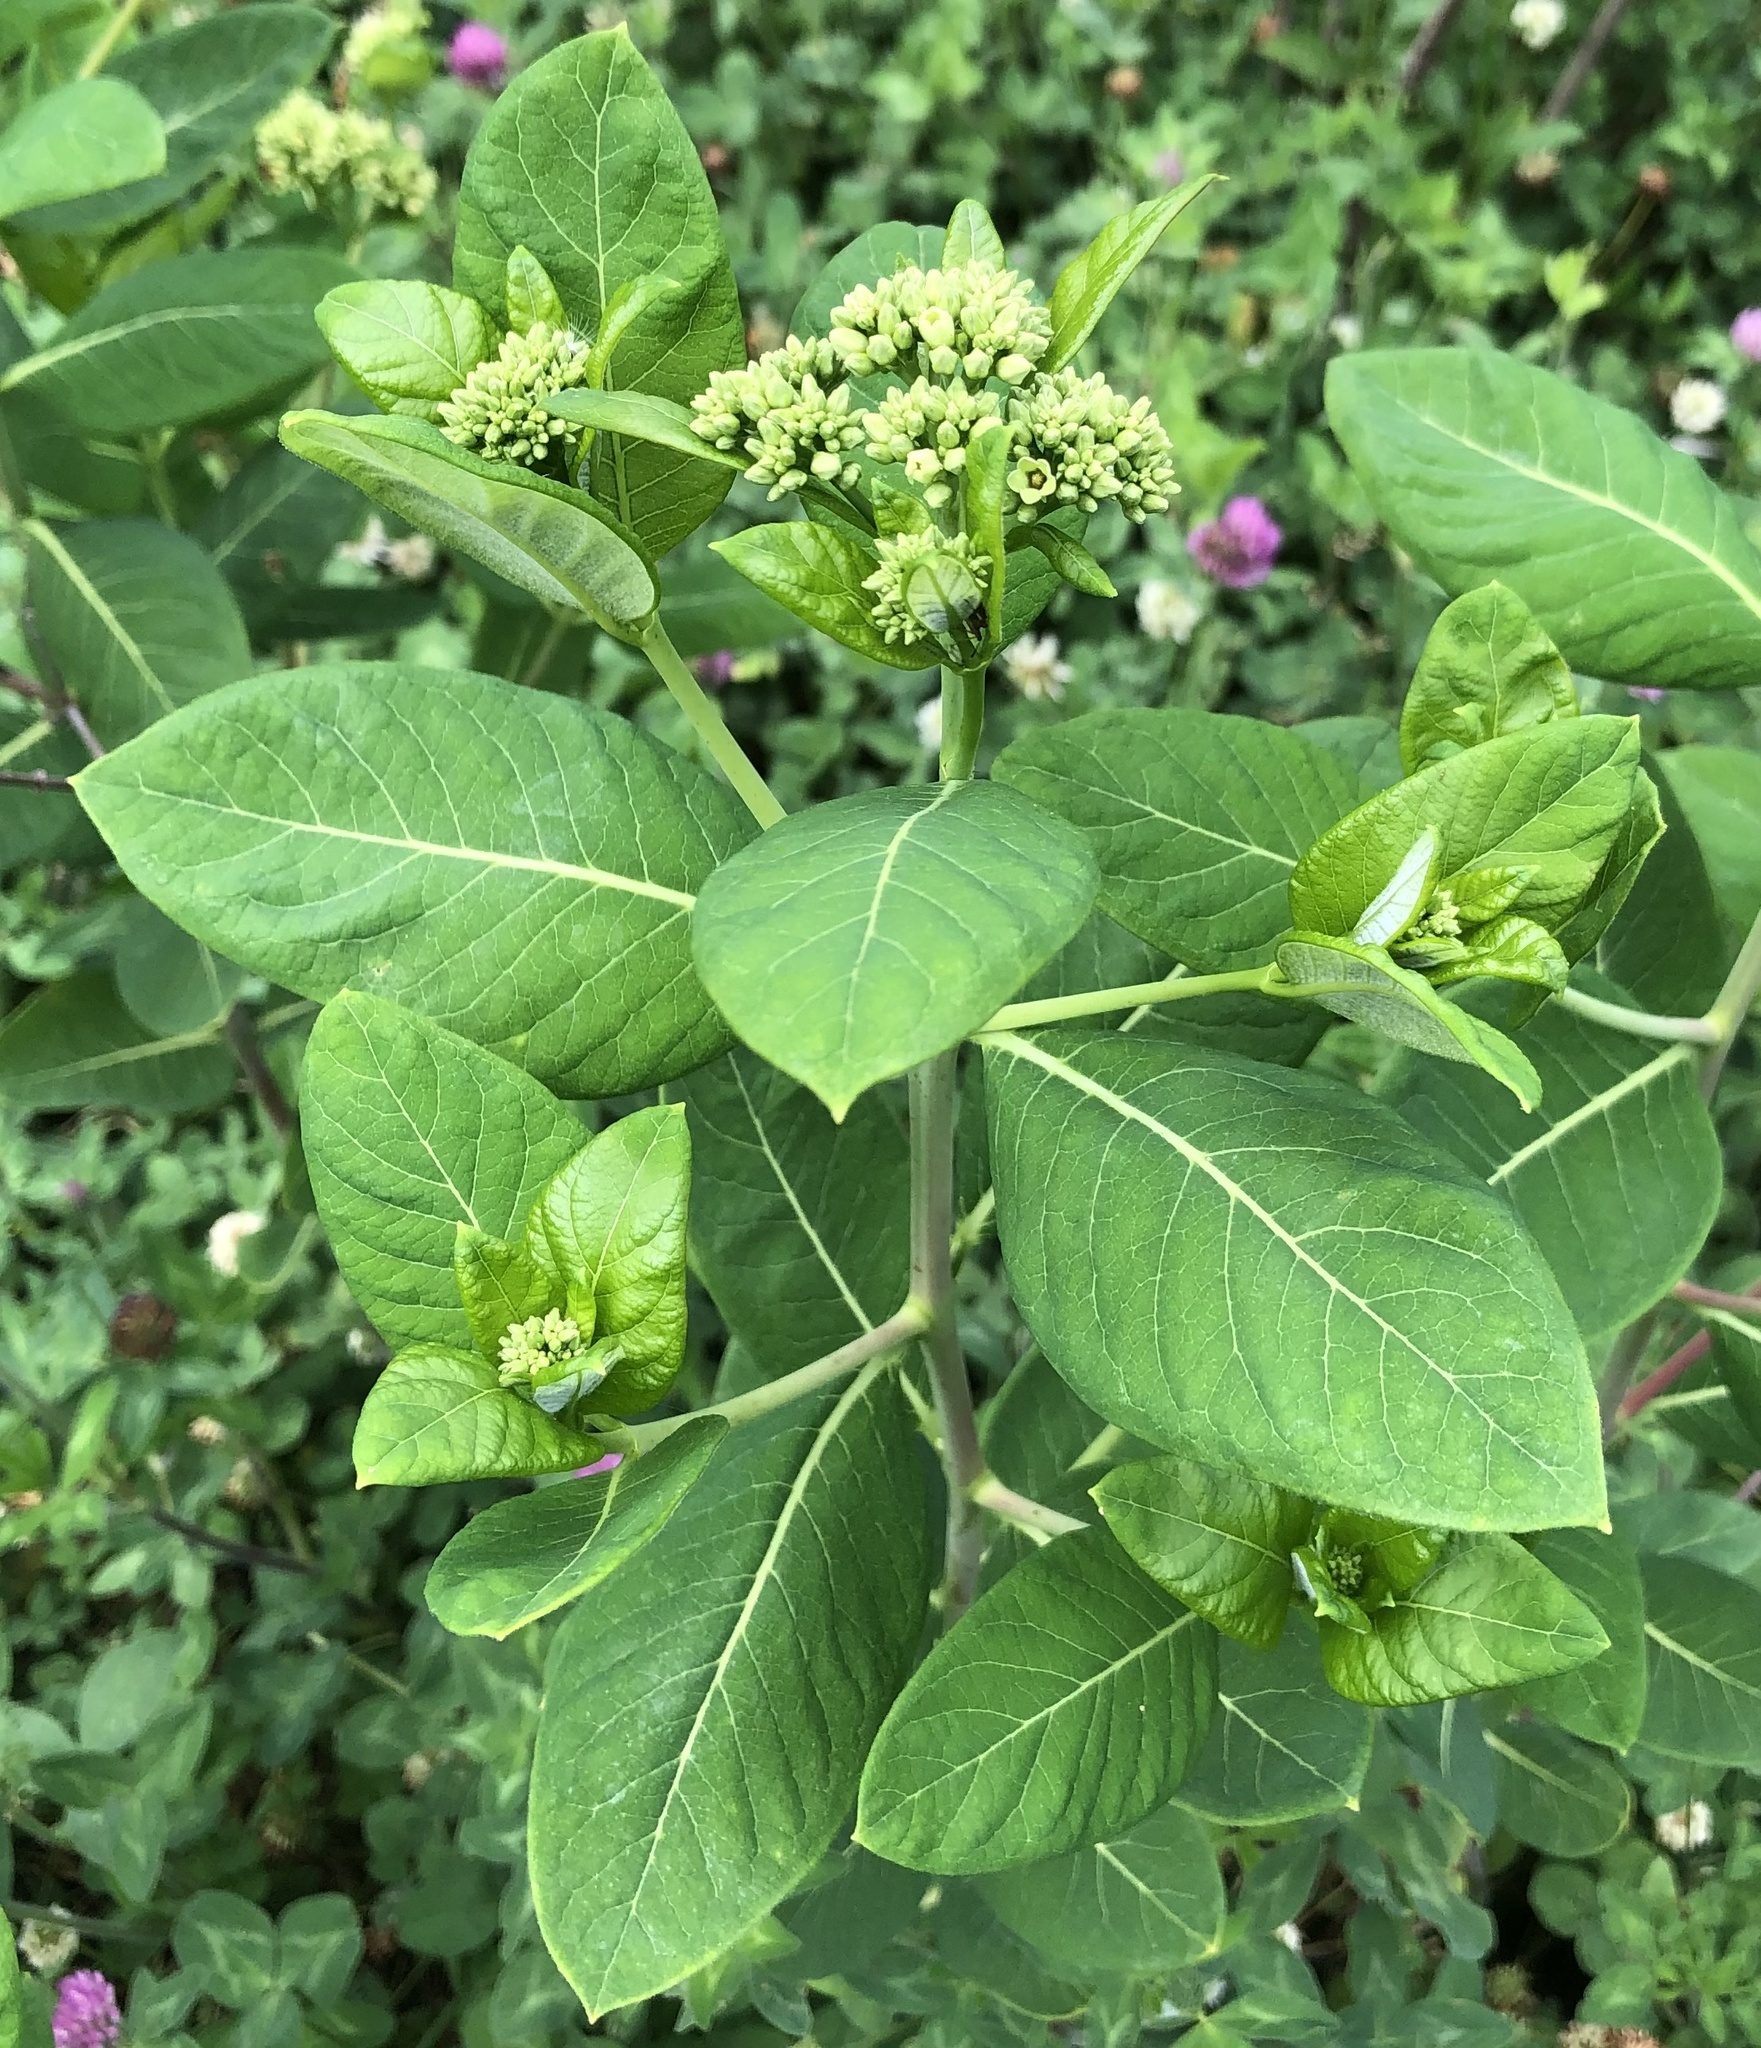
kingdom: Plantae
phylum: Tracheophyta
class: Magnoliopsida
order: Gentianales
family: Apocynaceae
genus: Apocynum
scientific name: Apocynum cannabinum
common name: Hemp dogbane
